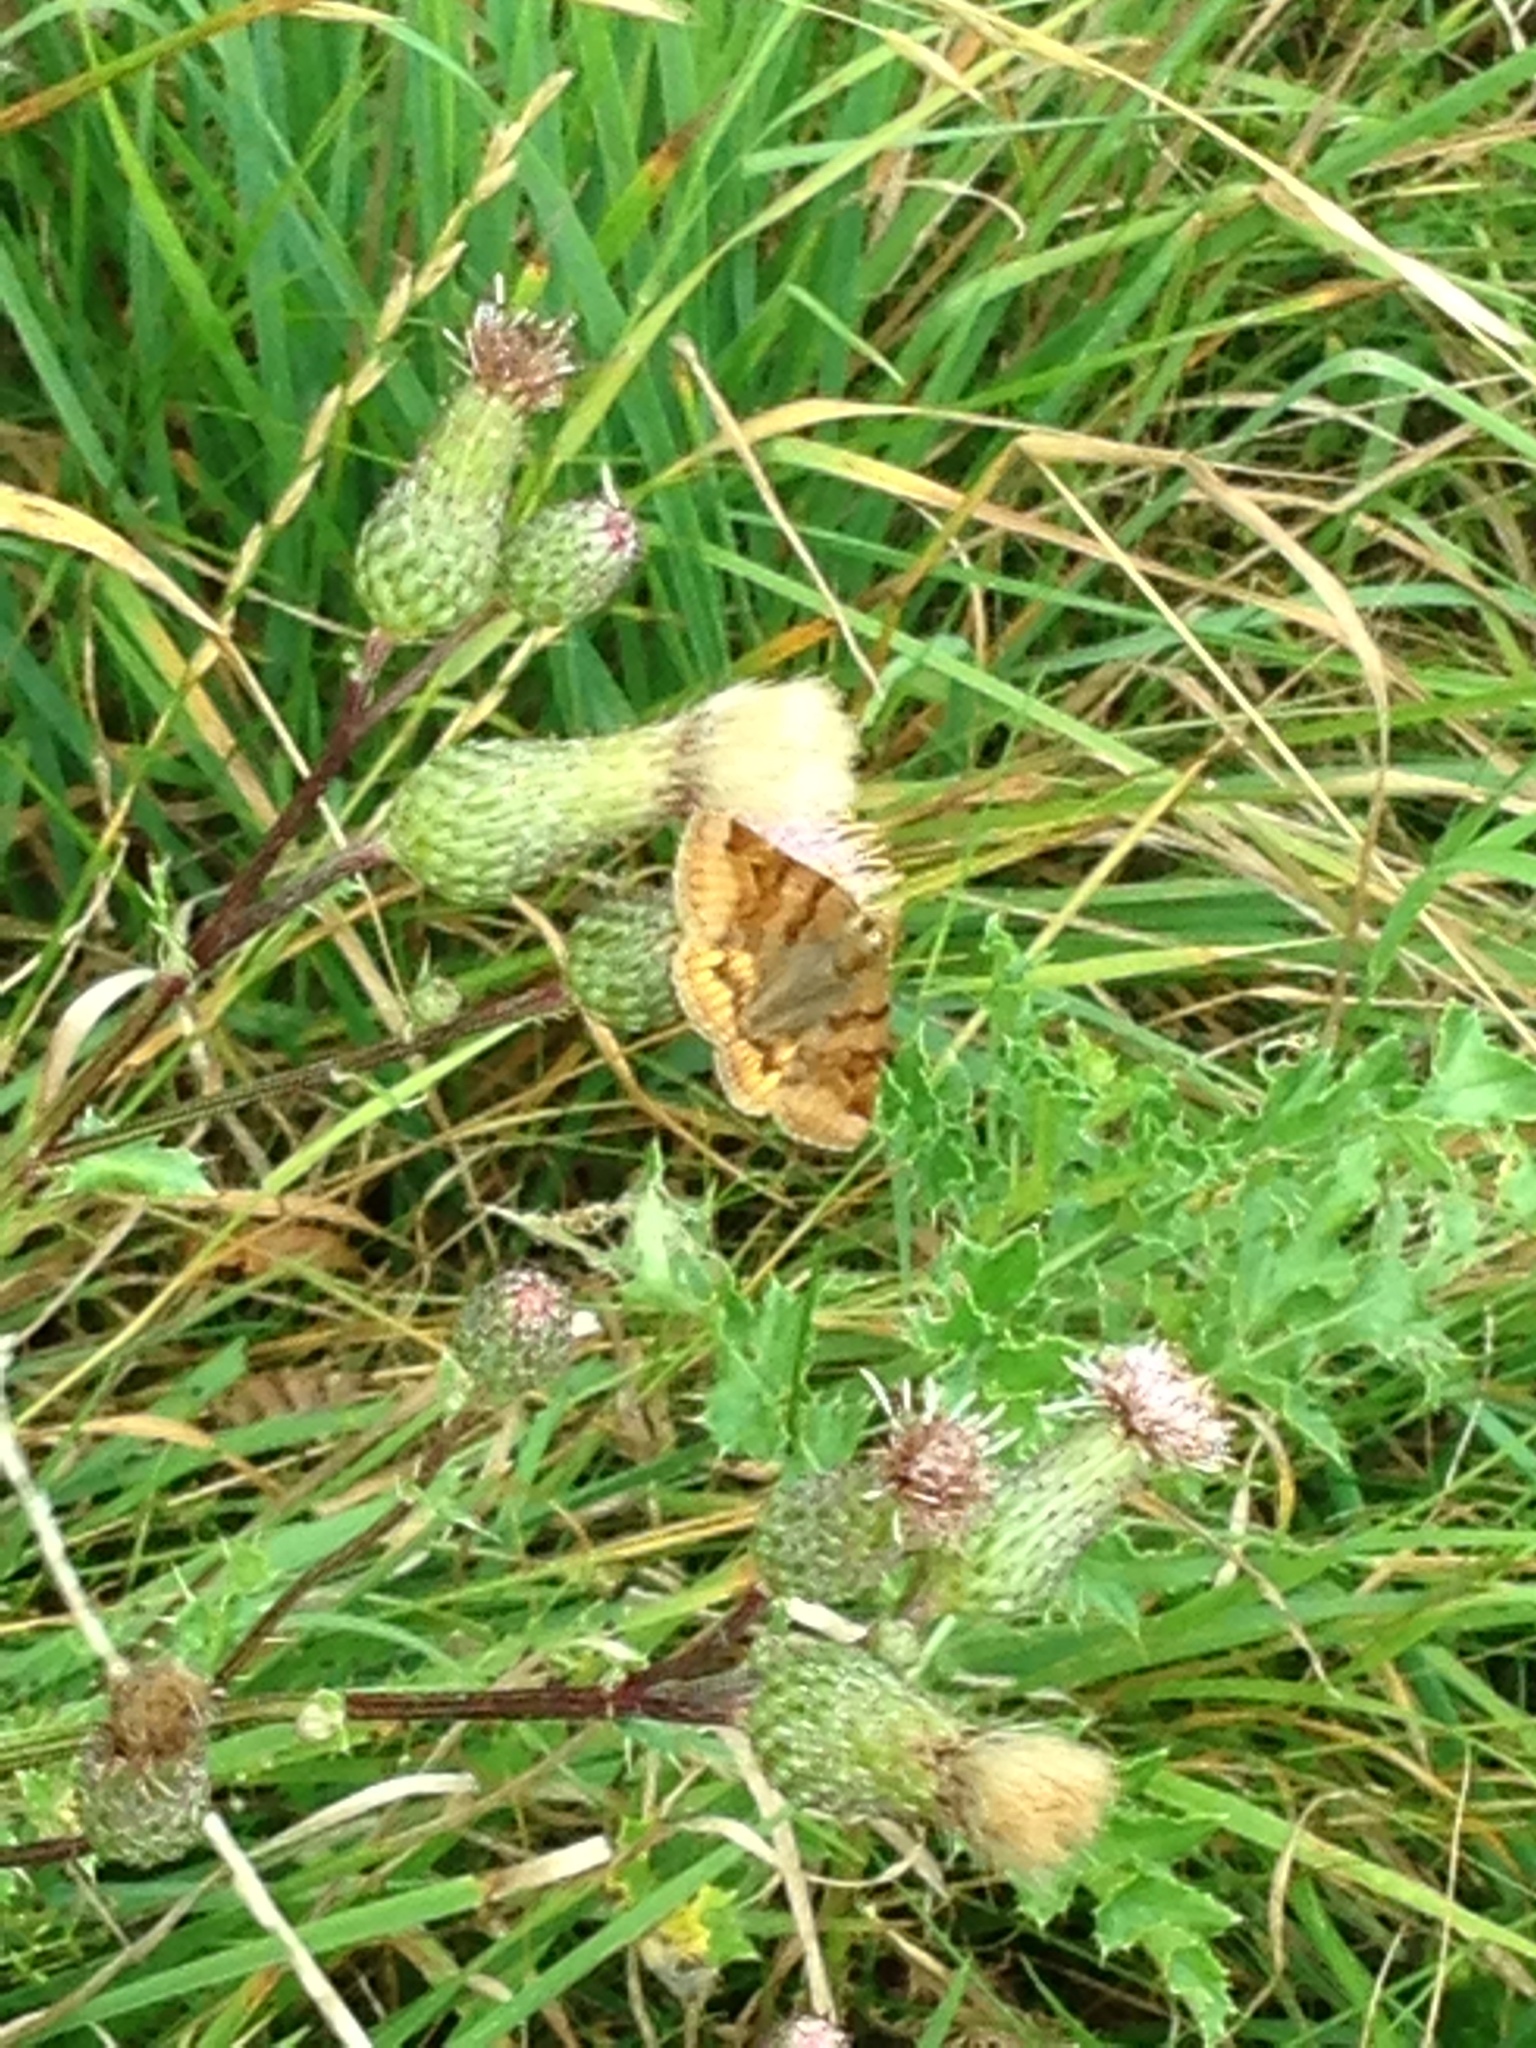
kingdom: Animalia
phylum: Arthropoda
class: Insecta
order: Lepidoptera
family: Erebidae
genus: Euclidia
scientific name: Euclidia glyphica
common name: Burnet companion
